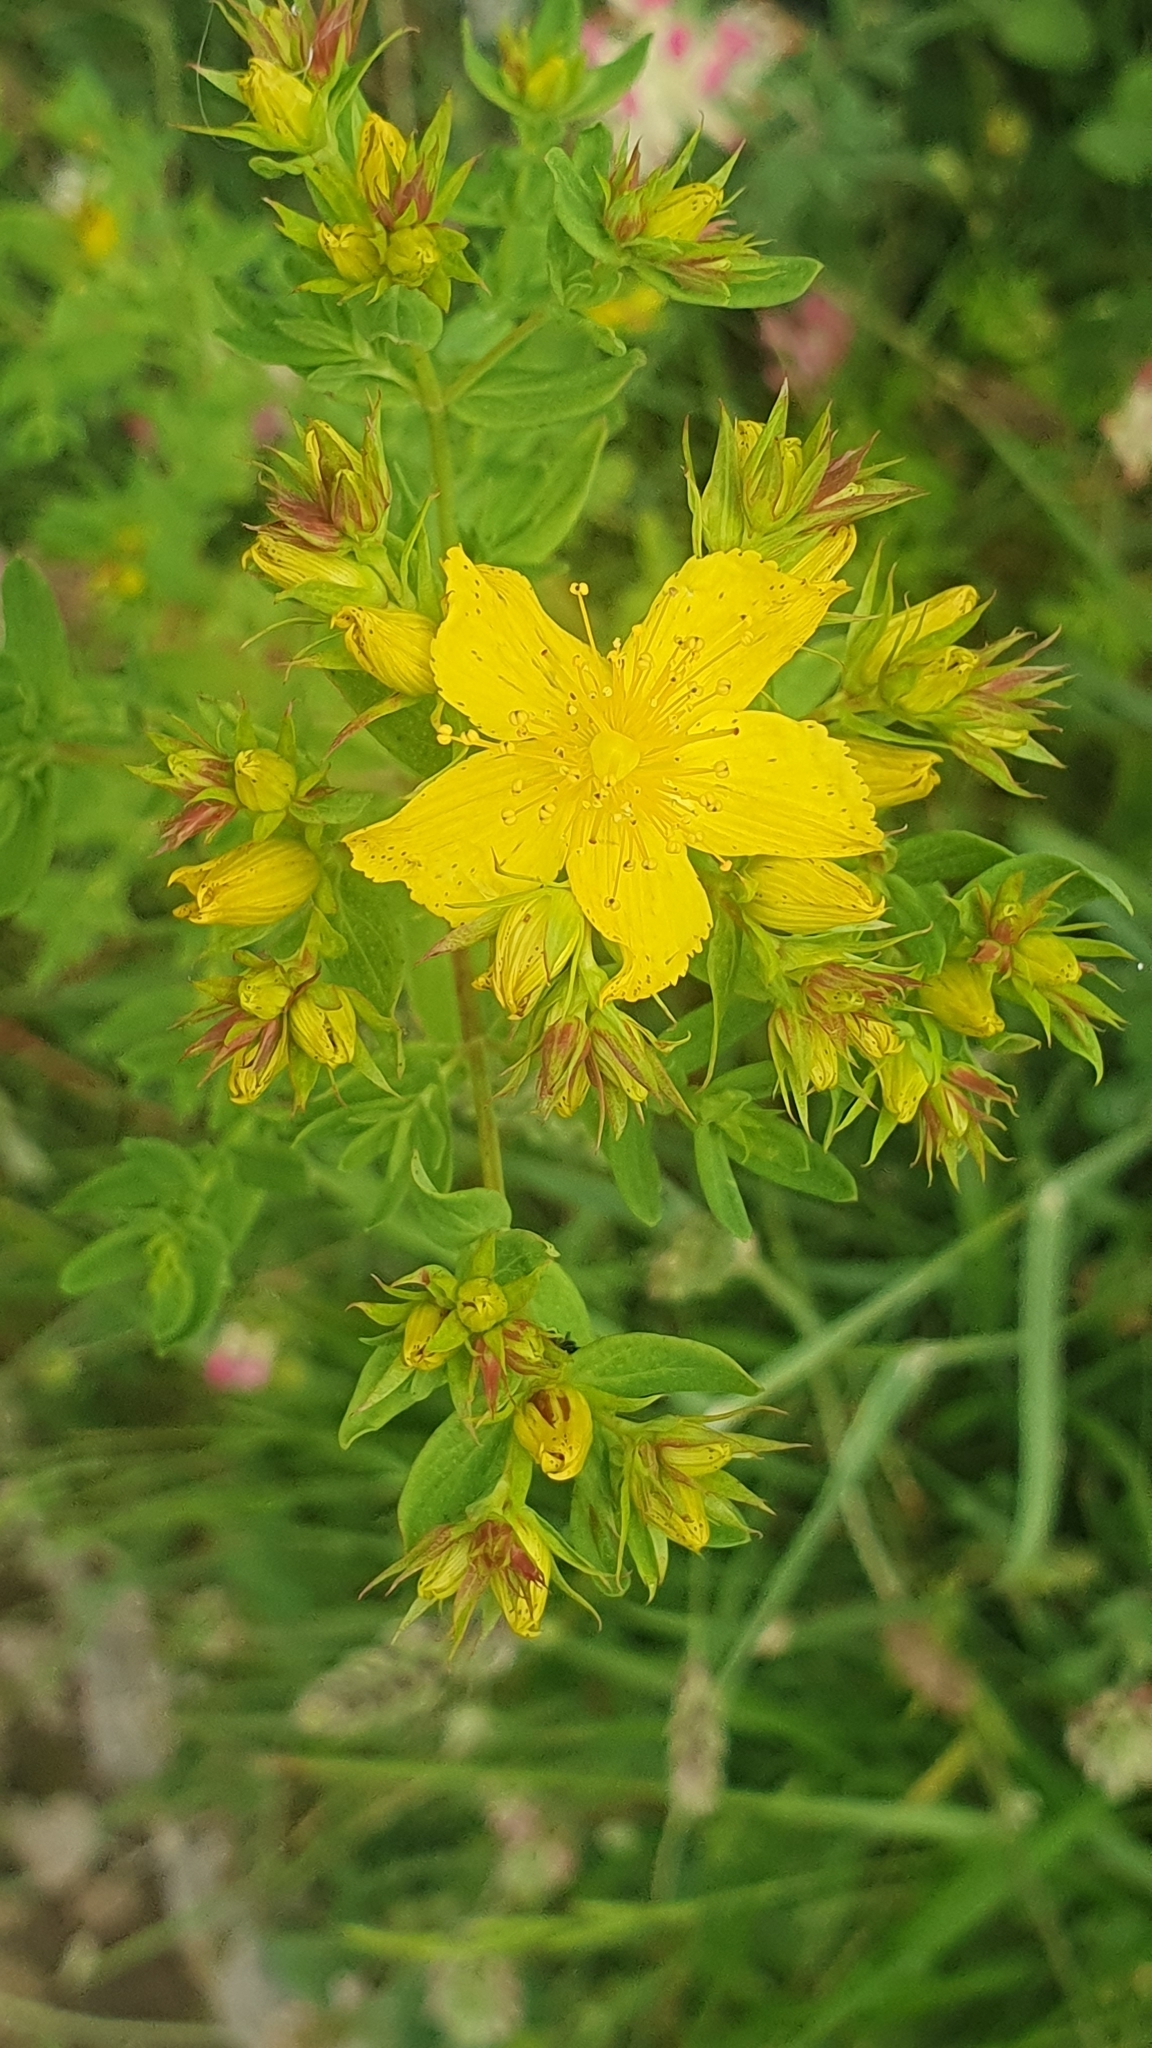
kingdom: Plantae
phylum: Tracheophyta
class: Magnoliopsida
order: Malpighiales
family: Hypericaceae
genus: Hypericum
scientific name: Hypericum perforatum
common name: Common st. johnswort
